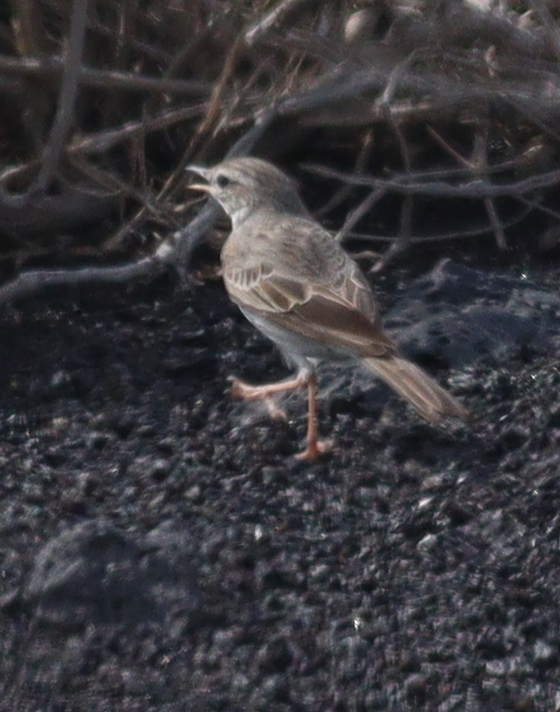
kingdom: Animalia
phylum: Chordata
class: Aves
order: Passeriformes
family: Motacillidae
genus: Anthus
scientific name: Anthus berthelotii
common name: Berthelot's pipit
